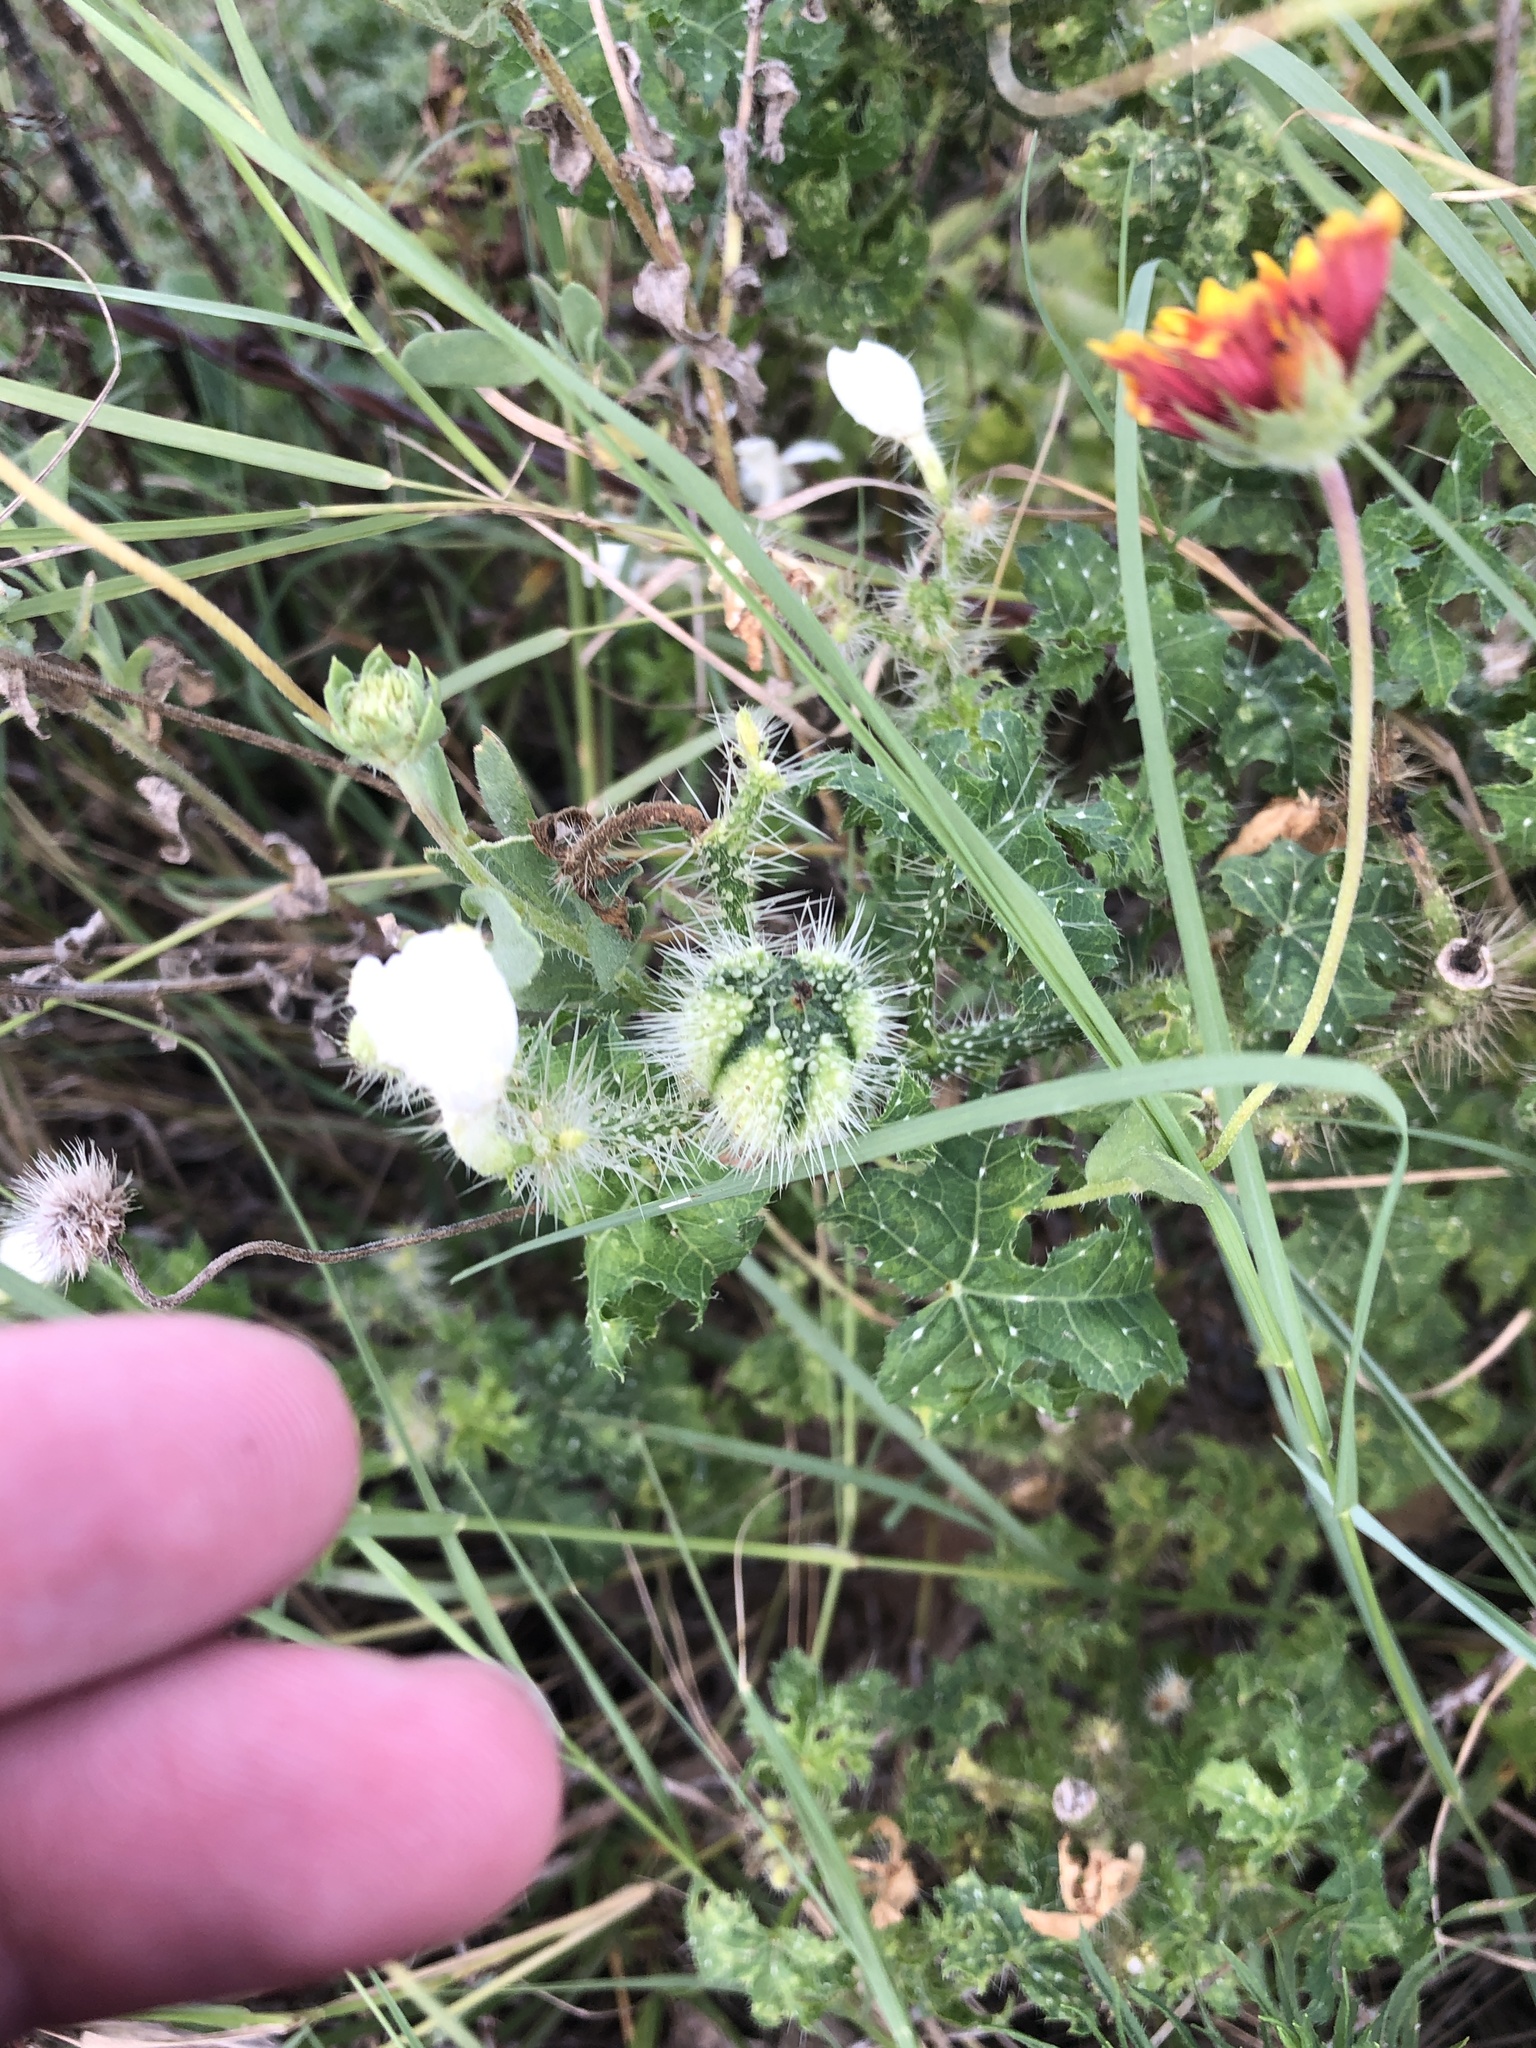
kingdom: Plantae
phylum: Tracheophyta
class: Magnoliopsida
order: Malpighiales
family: Euphorbiaceae
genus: Cnidoscolus
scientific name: Cnidoscolus texanus
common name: Texas bull-nettle
